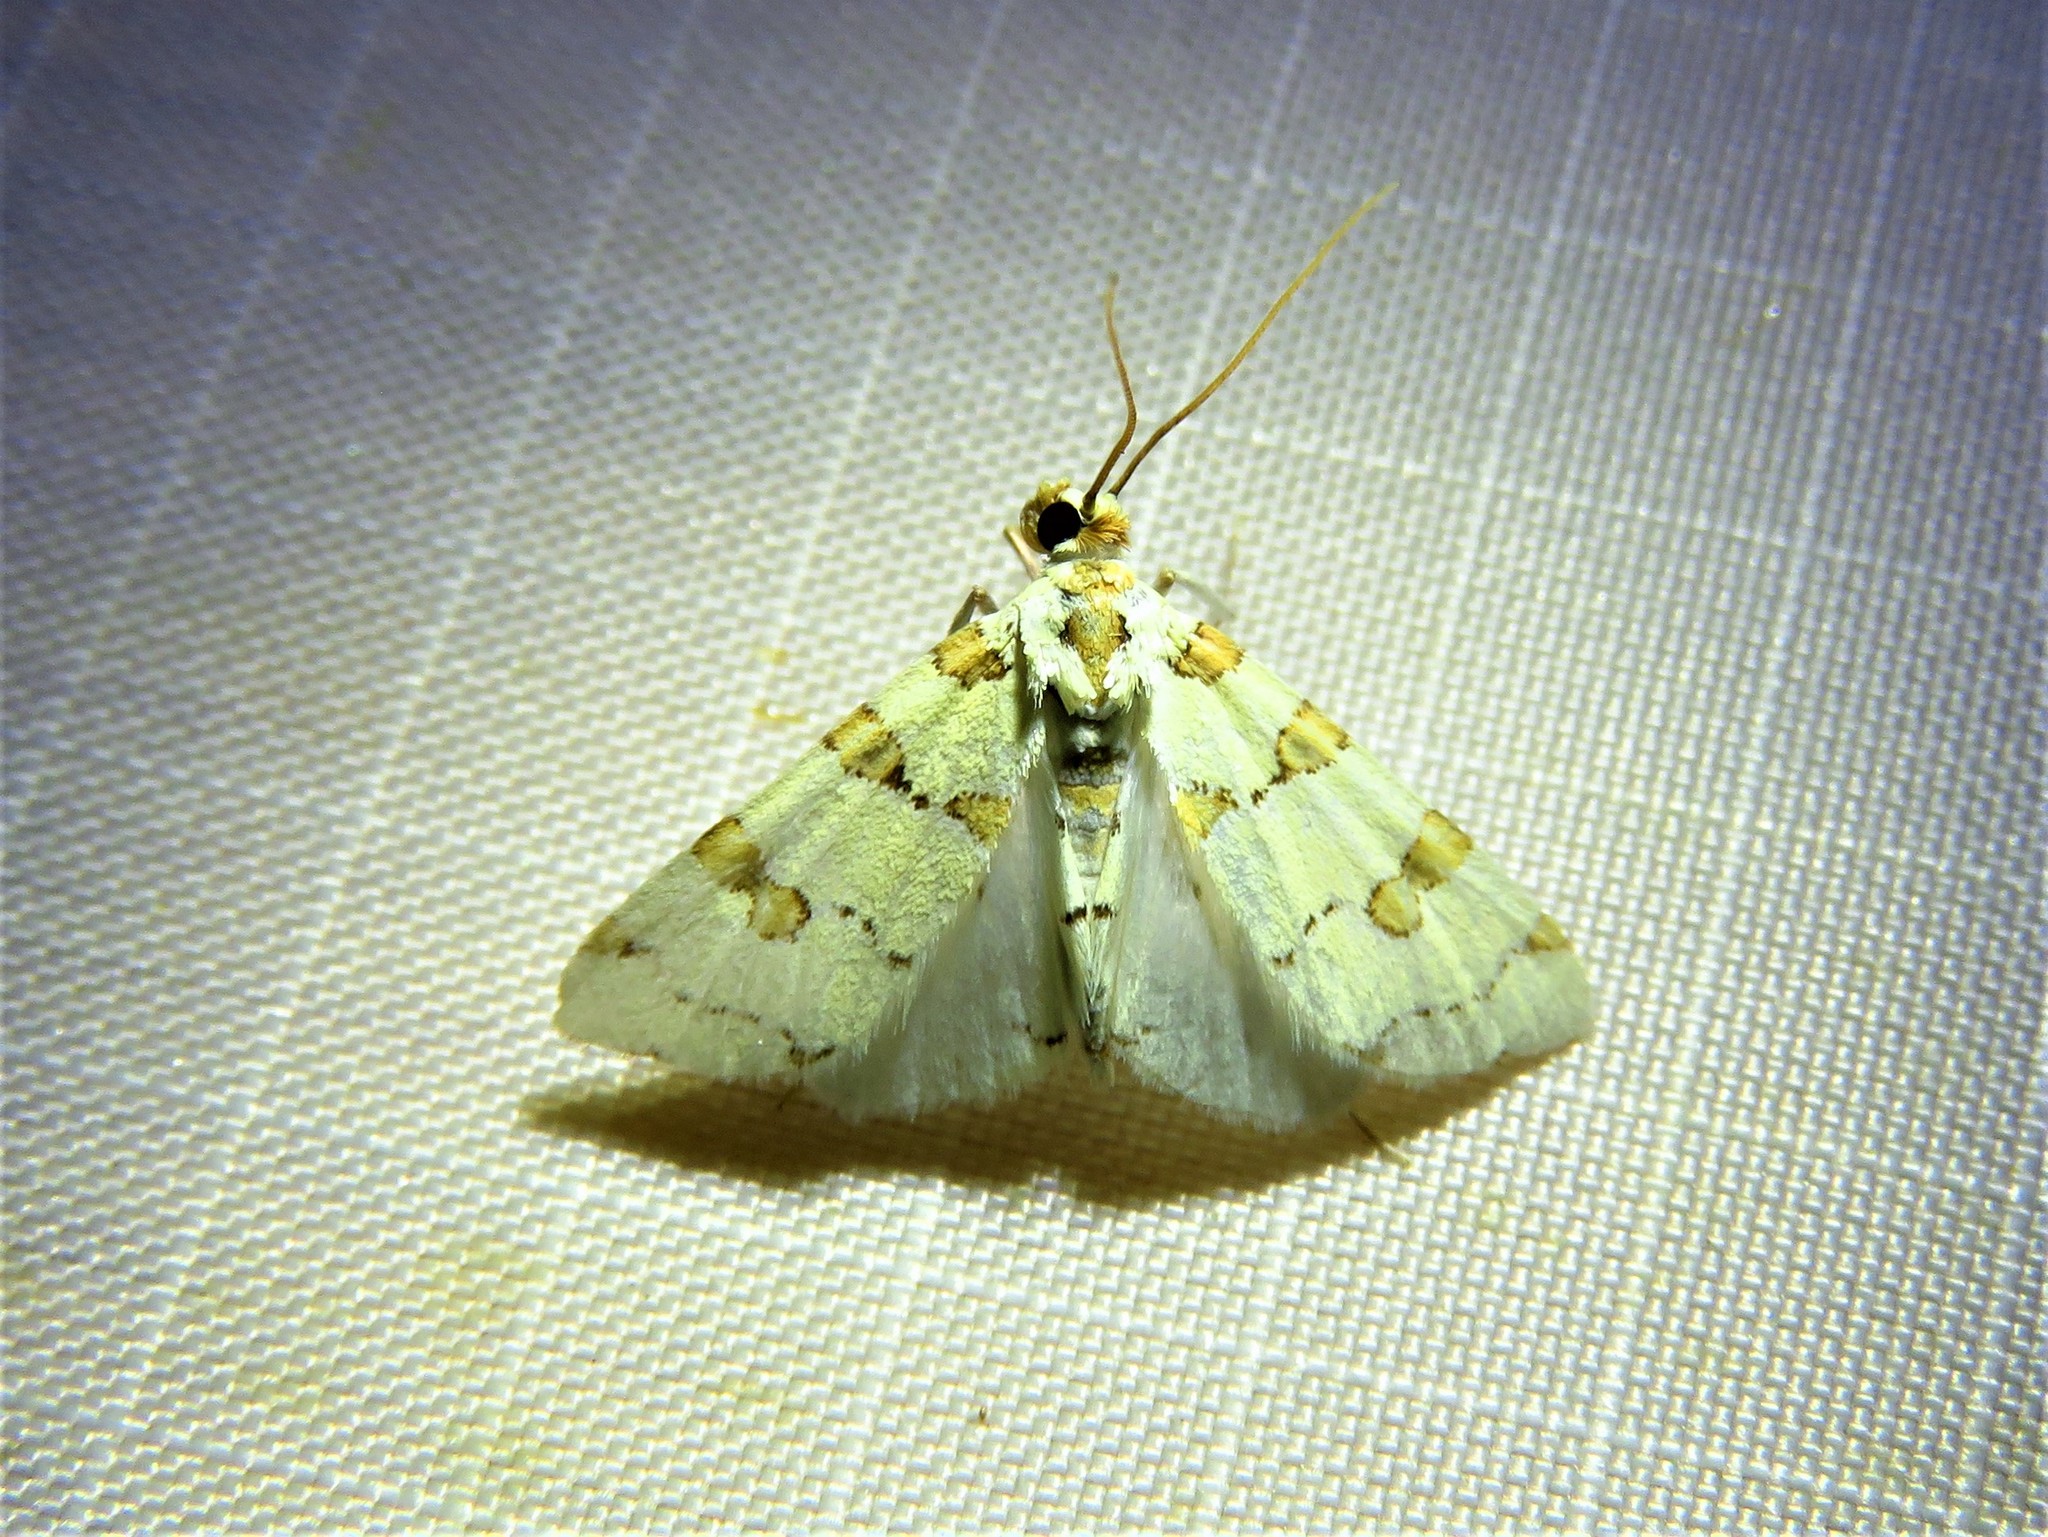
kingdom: Animalia
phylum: Arthropoda
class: Insecta
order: Lepidoptera
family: Crambidae
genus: Conchylodes
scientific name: Conchylodes
